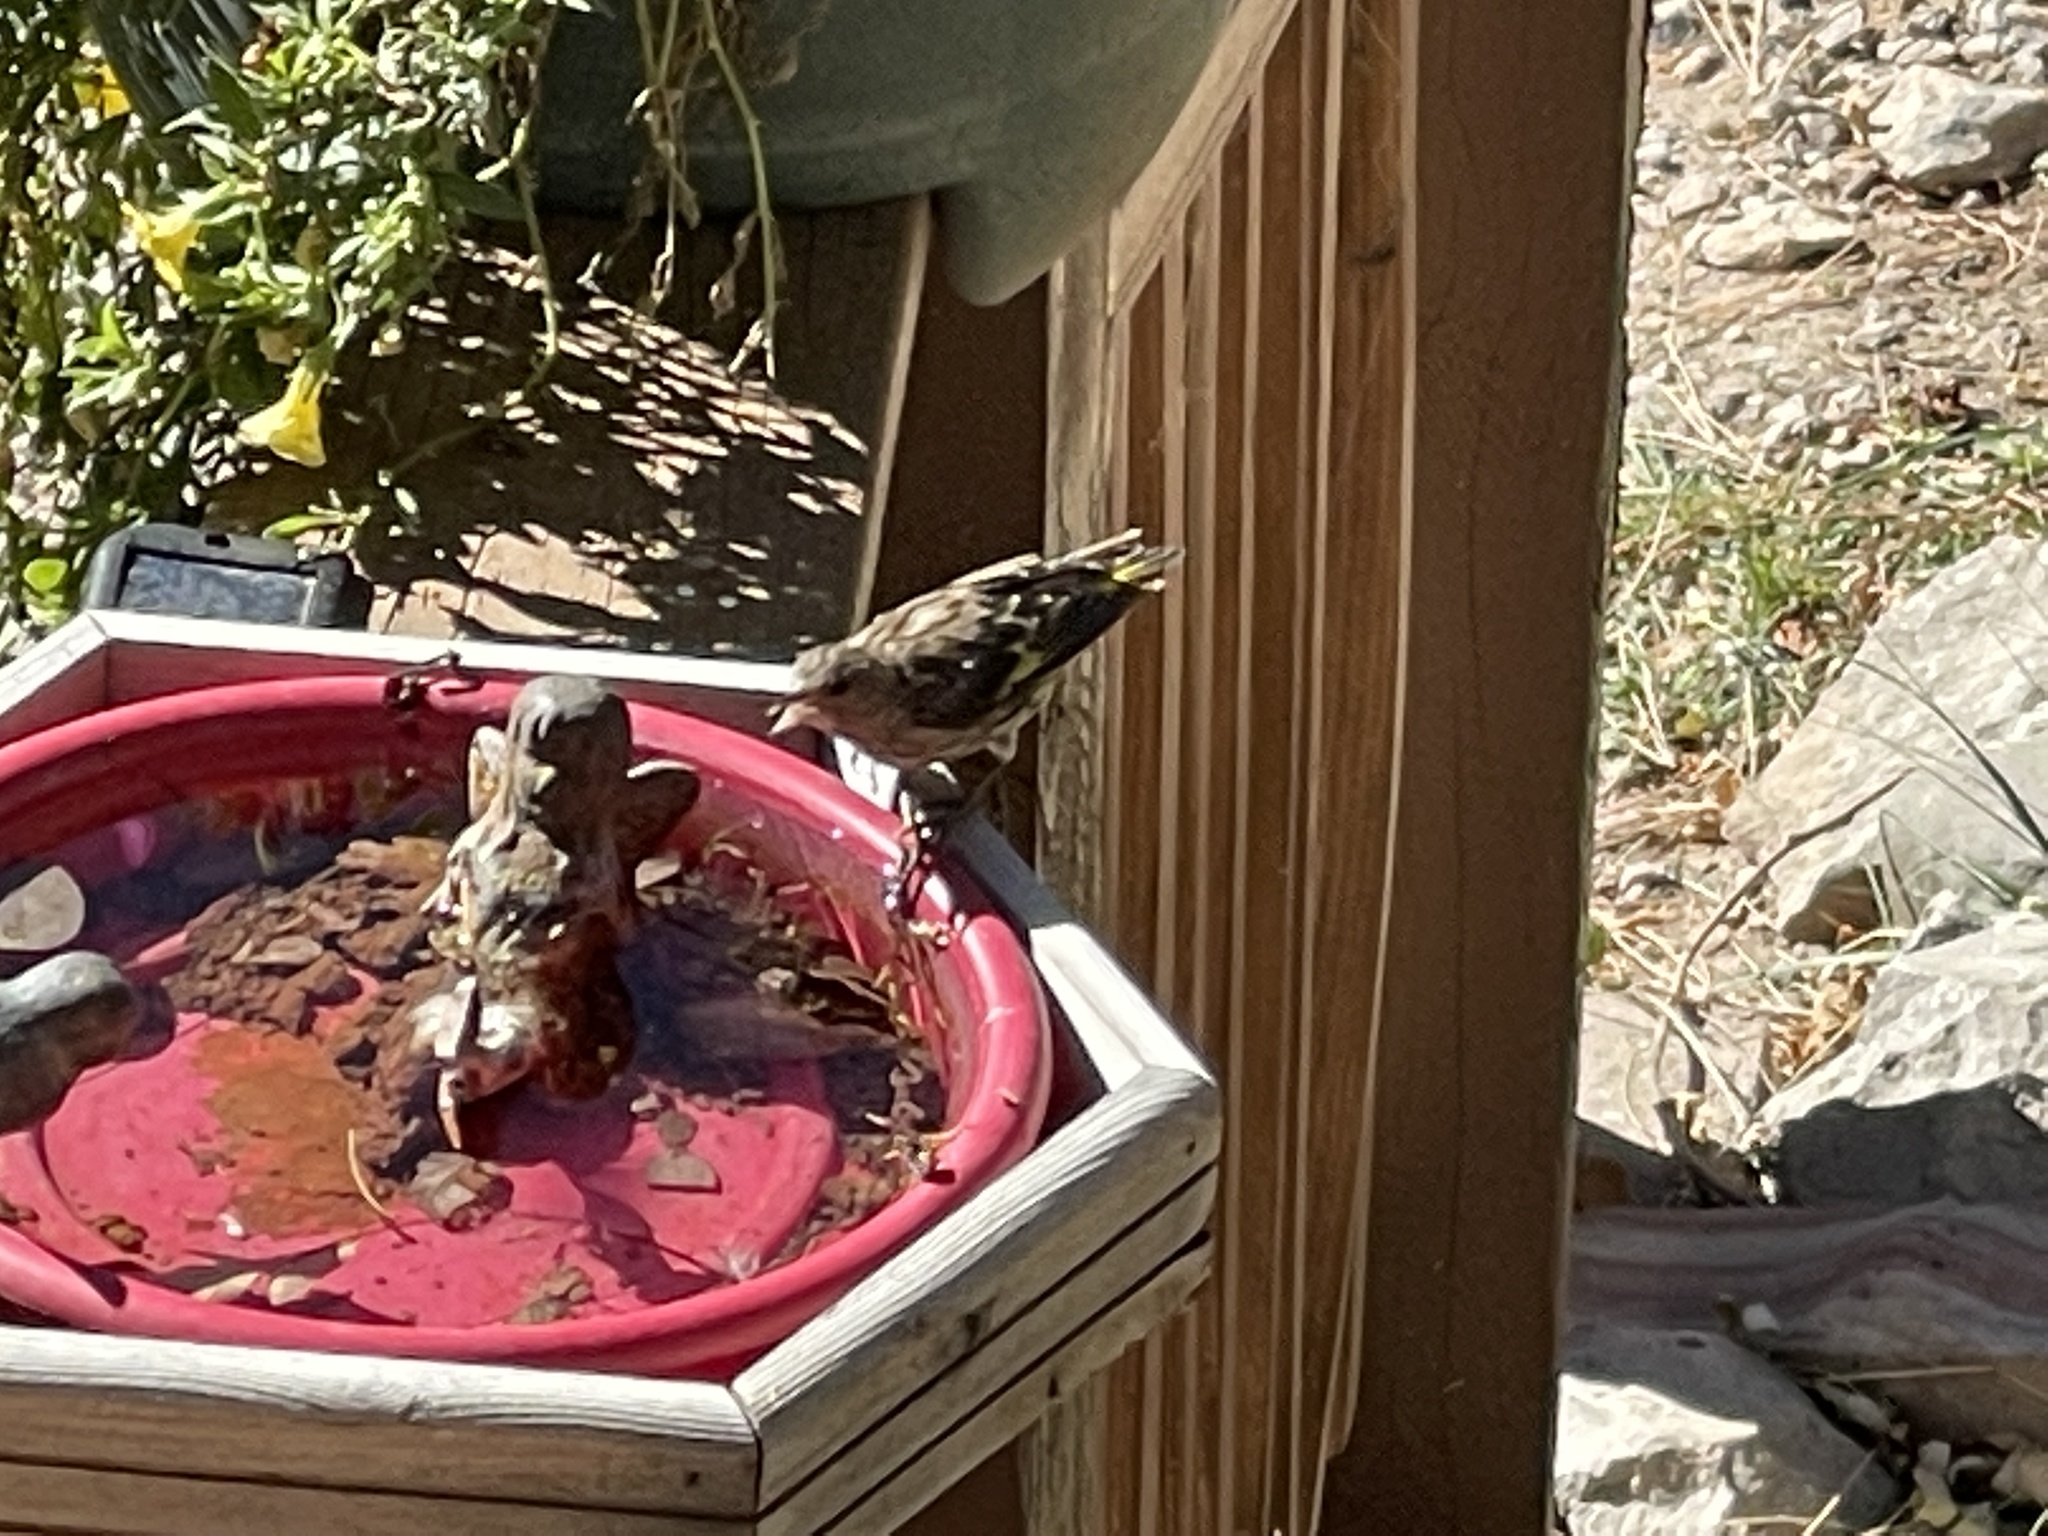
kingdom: Animalia
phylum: Chordata
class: Aves
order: Passeriformes
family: Fringillidae
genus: Spinus
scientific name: Spinus pinus
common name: Pine siskin
